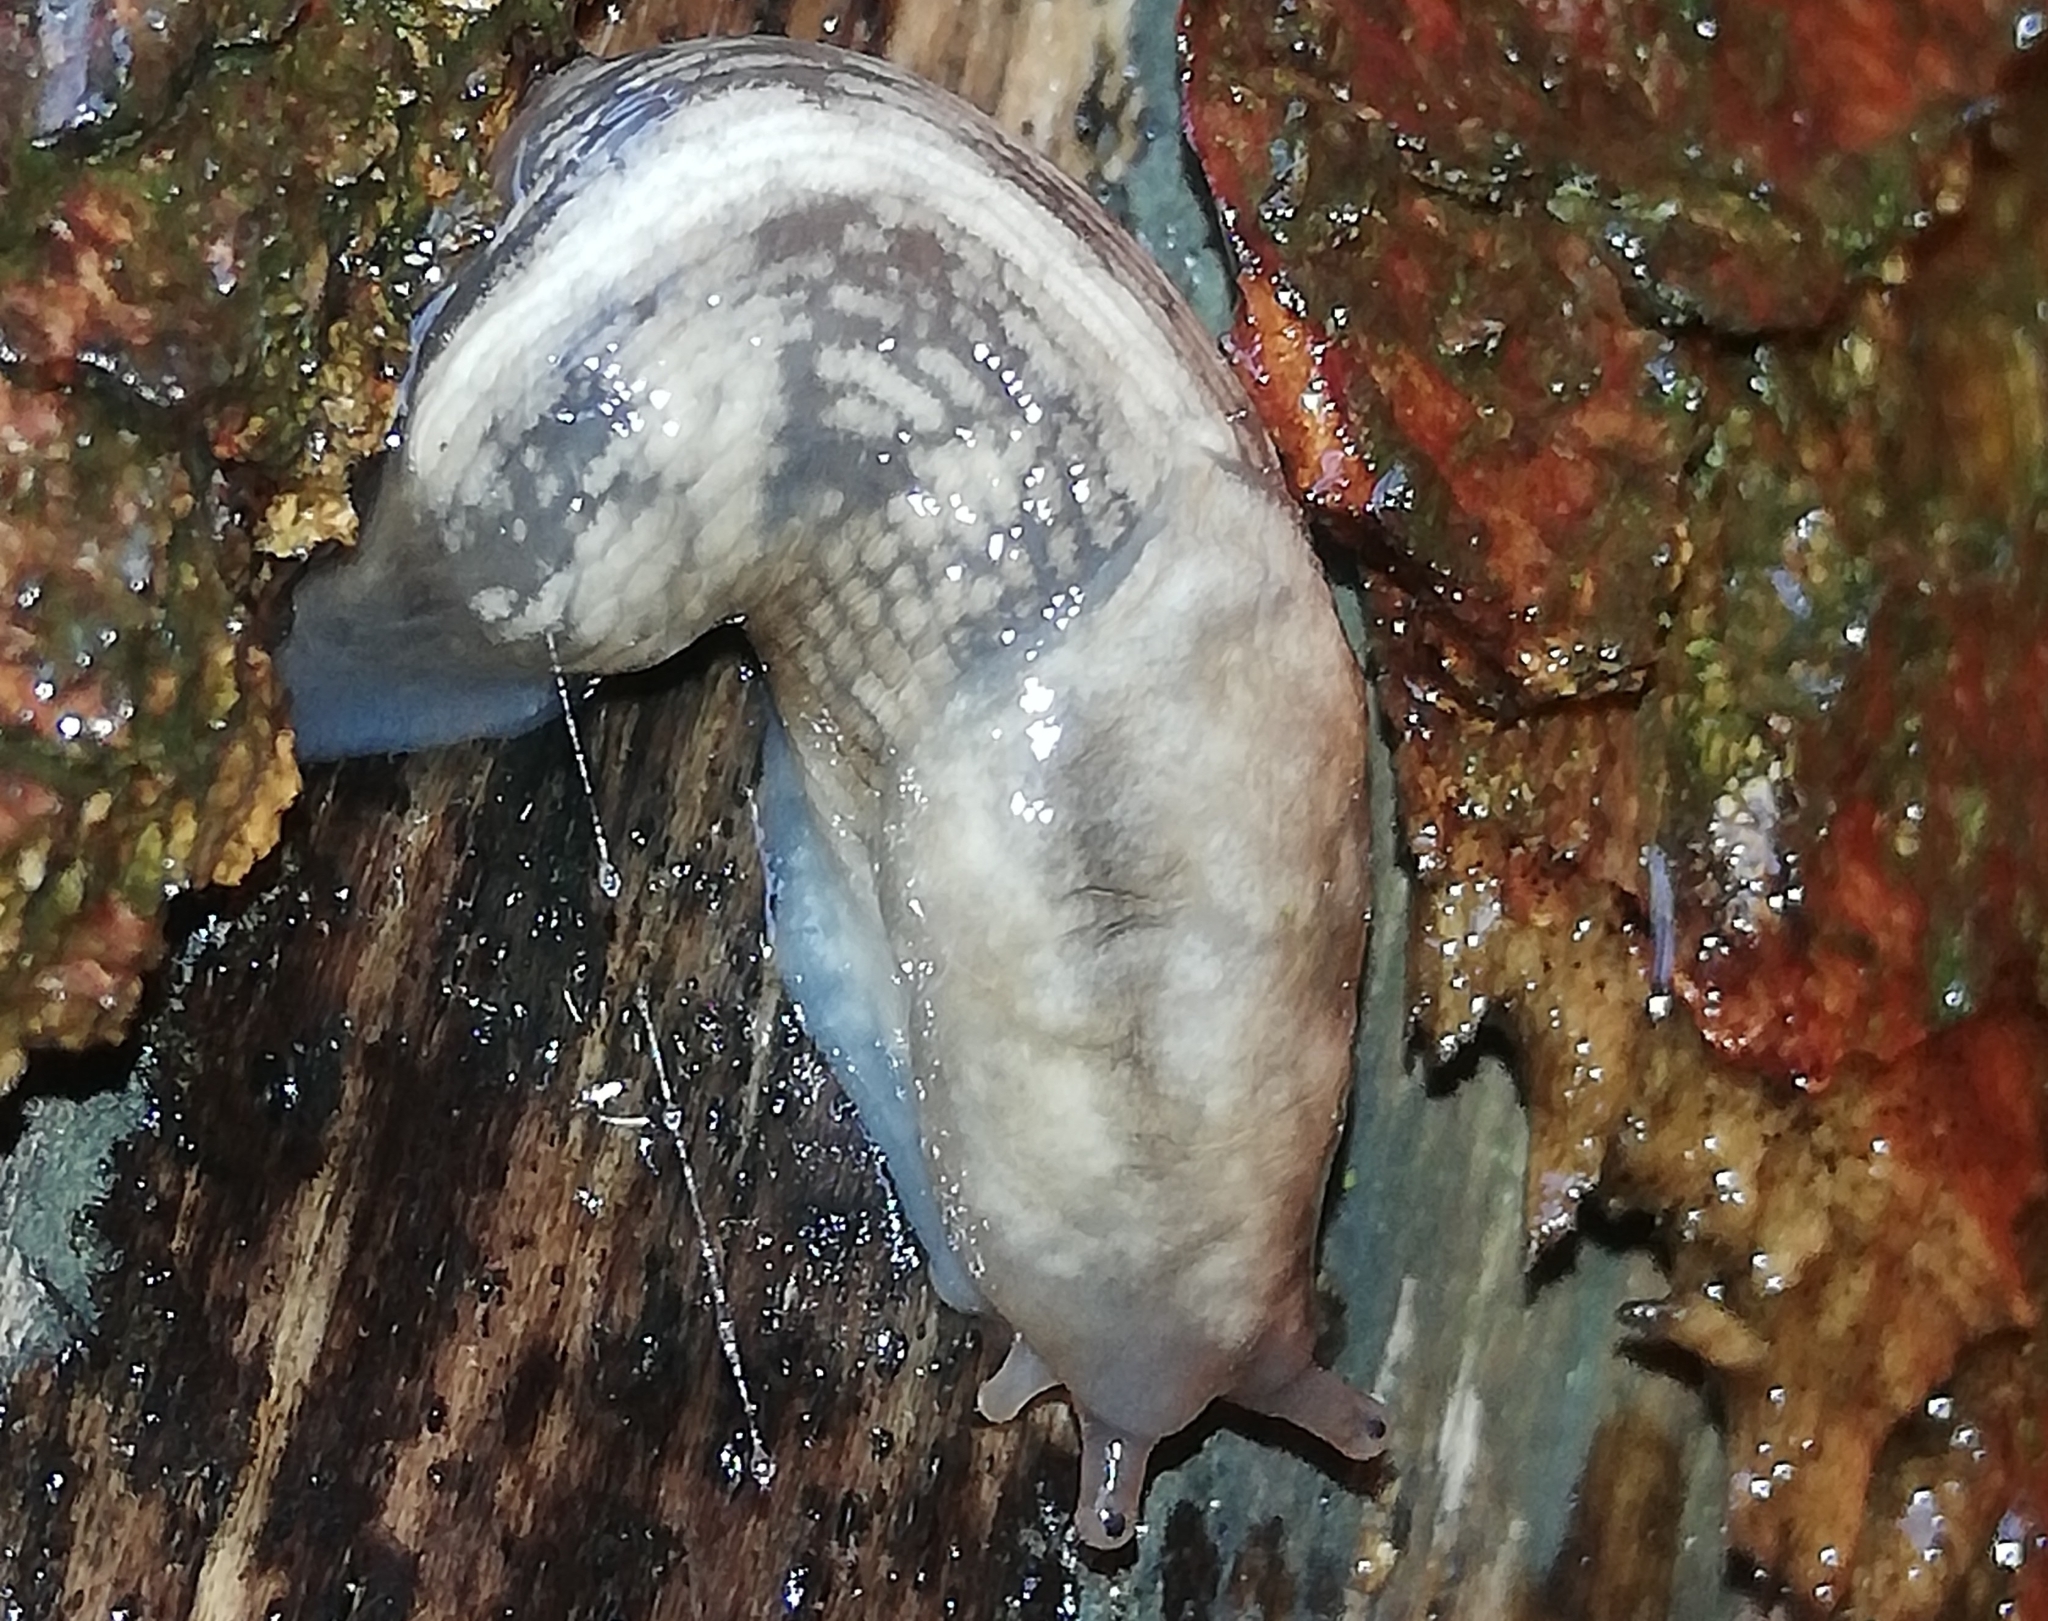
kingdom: Animalia
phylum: Mollusca
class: Gastropoda
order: Stylommatophora
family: Limacidae
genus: Lehmannia
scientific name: Lehmannia marginata
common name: Tree slug
